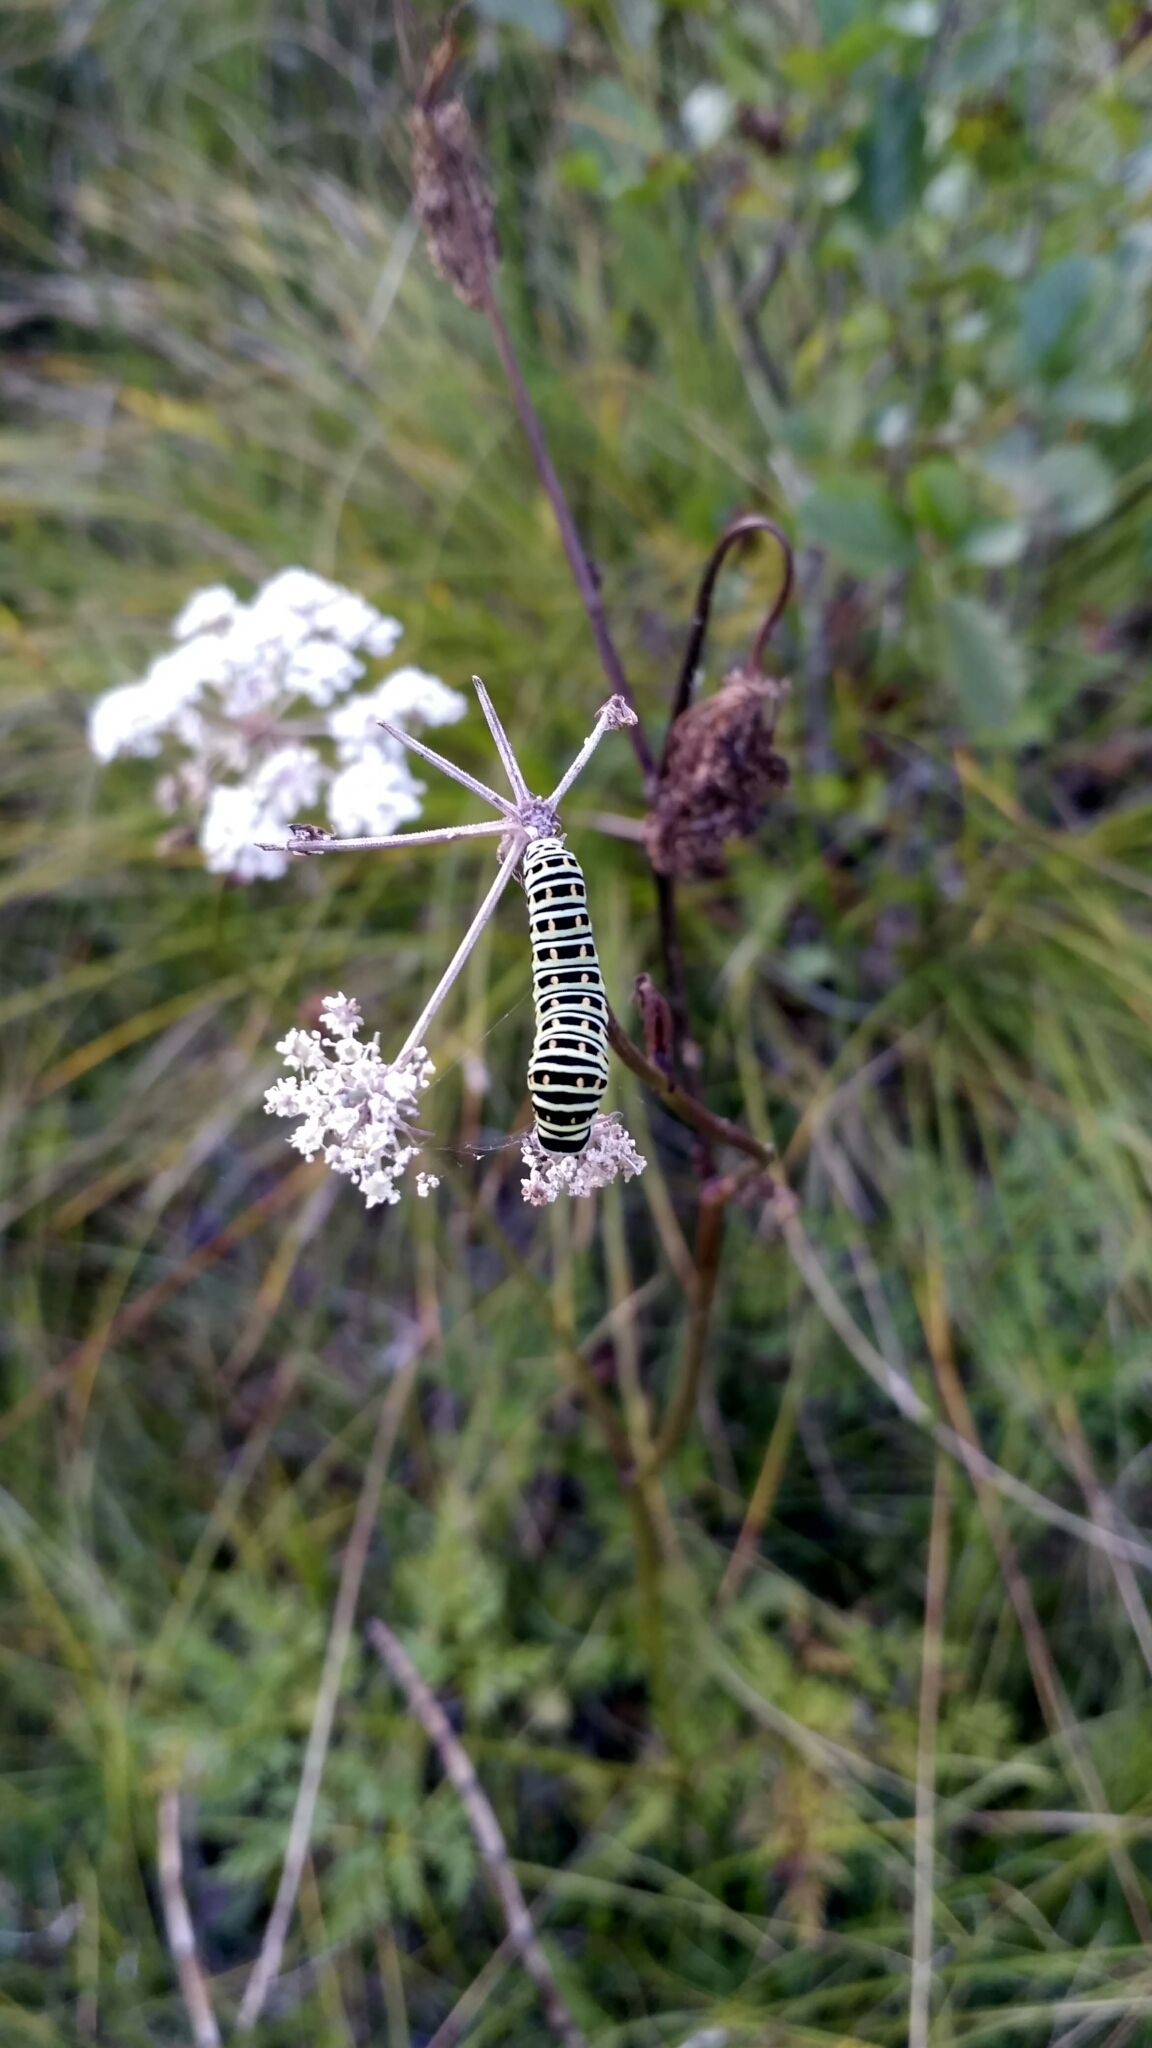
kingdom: Animalia
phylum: Arthropoda
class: Insecta
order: Lepidoptera
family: Papilionidae
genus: Papilio
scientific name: Papilio machaon
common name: Swallowtail
